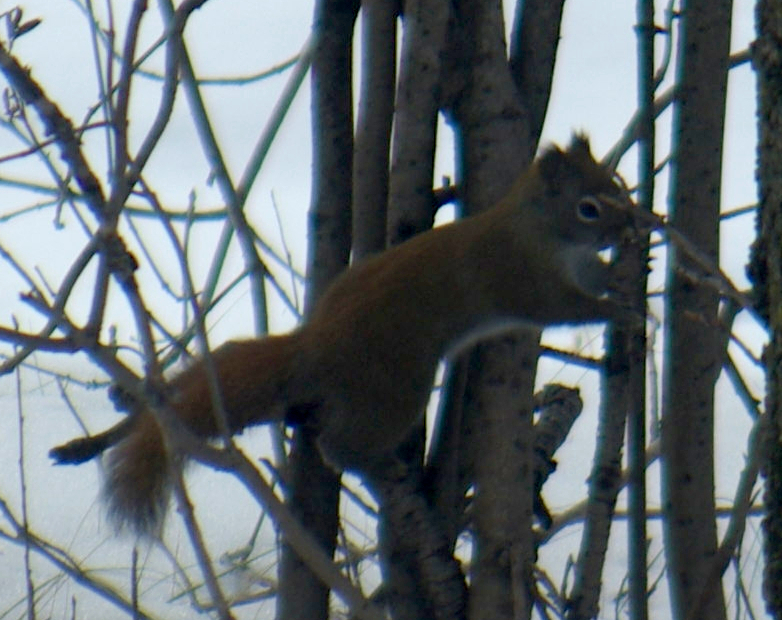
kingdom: Animalia
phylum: Chordata
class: Mammalia
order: Rodentia
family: Sciuridae
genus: Tamiasciurus
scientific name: Tamiasciurus hudsonicus
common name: Red squirrel
